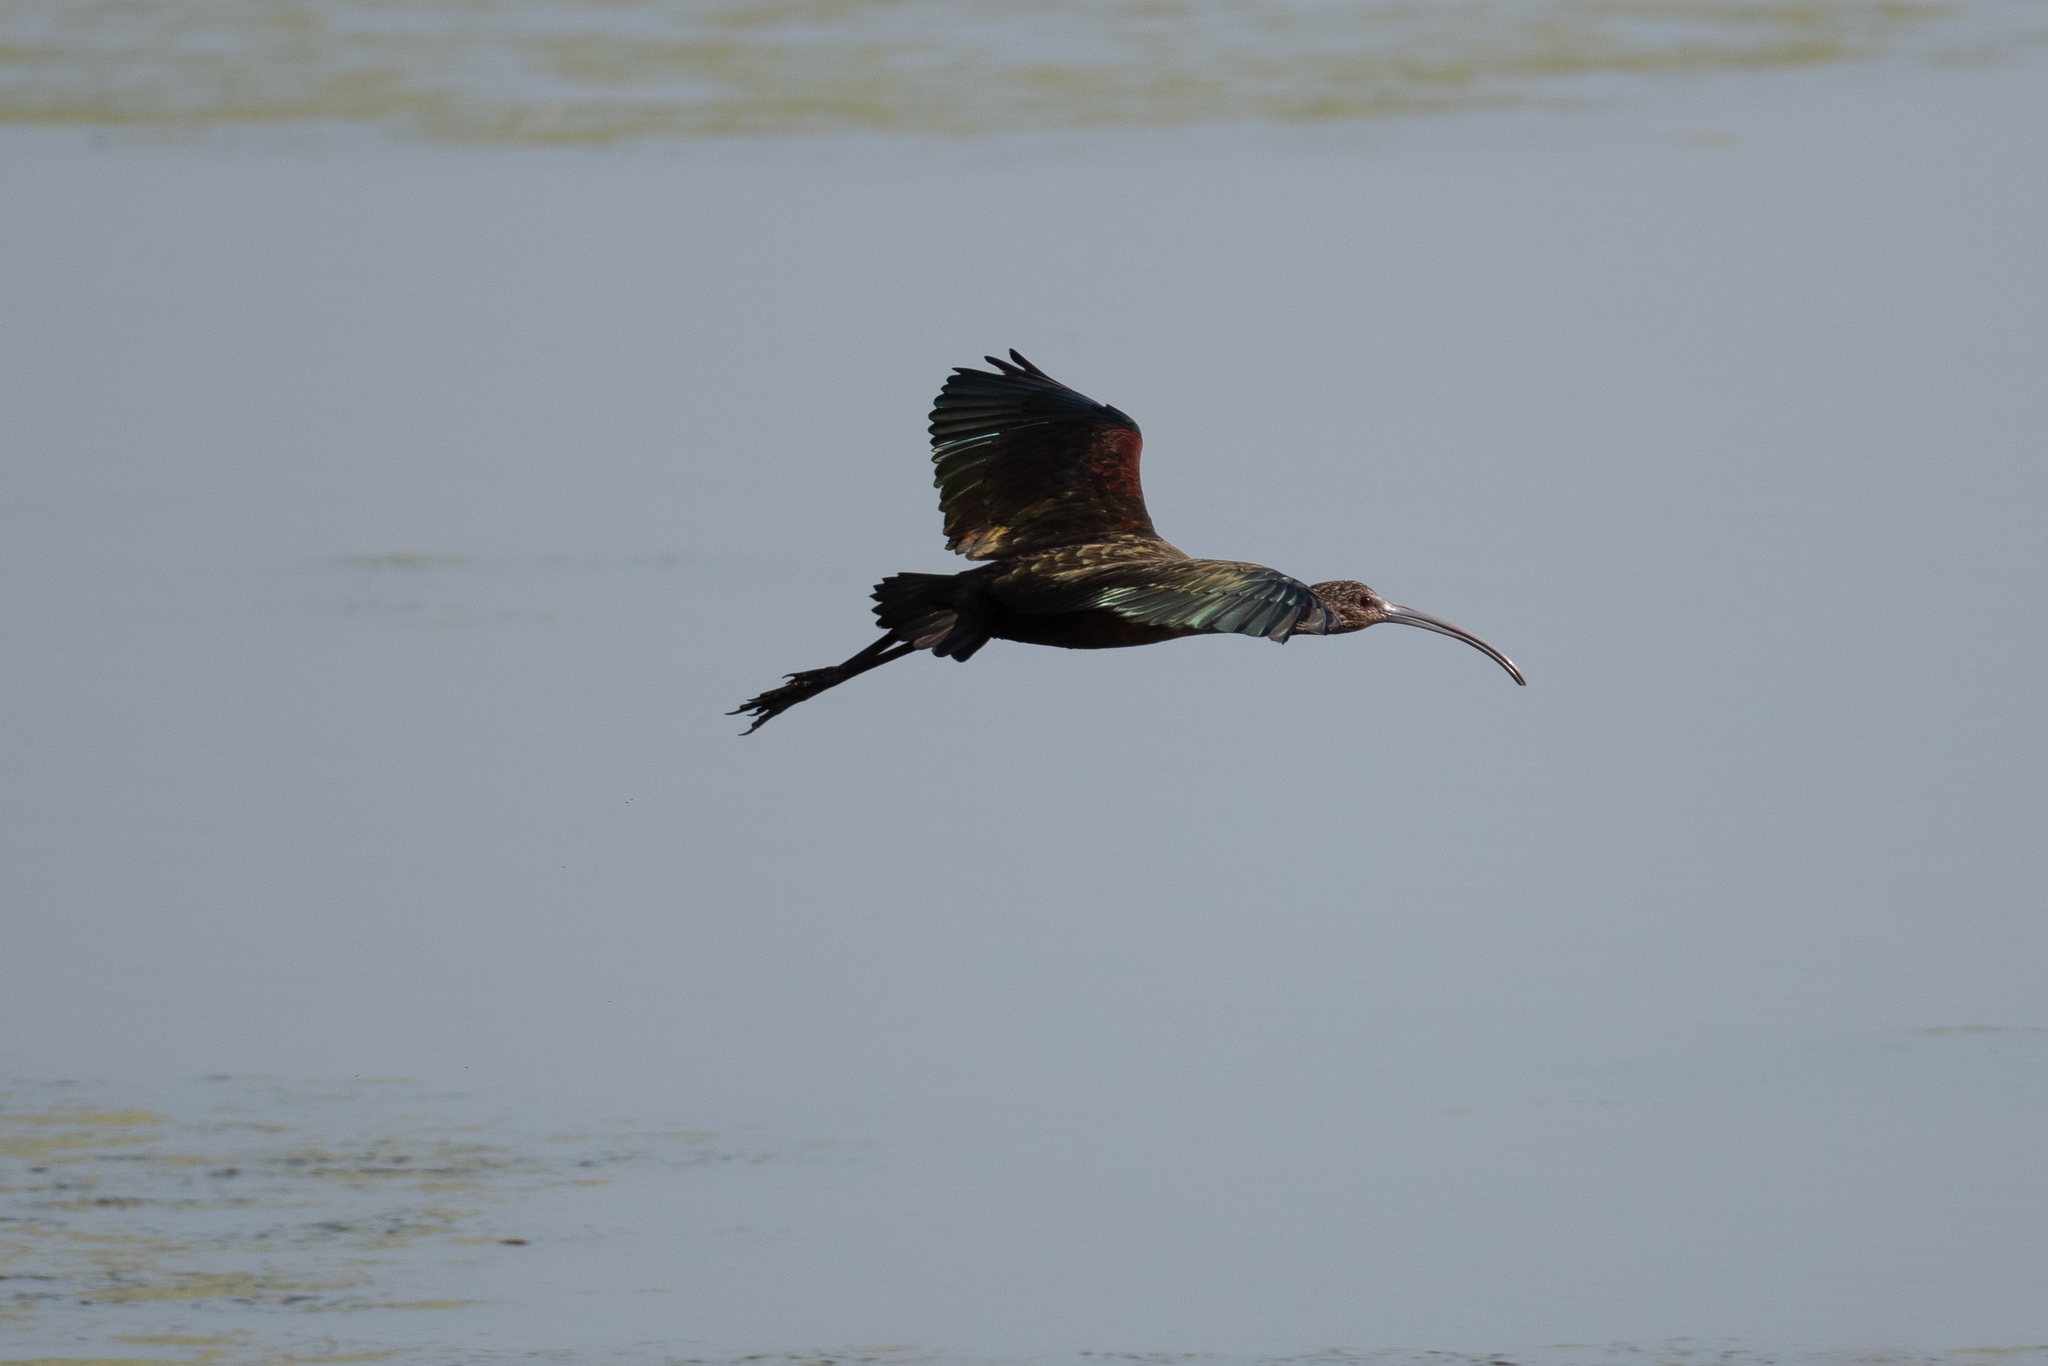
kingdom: Animalia
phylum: Chordata
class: Aves
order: Pelecaniformes
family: Threskiornithidae
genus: Plegadis
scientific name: Plegadis chihi
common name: White-faced ibis
